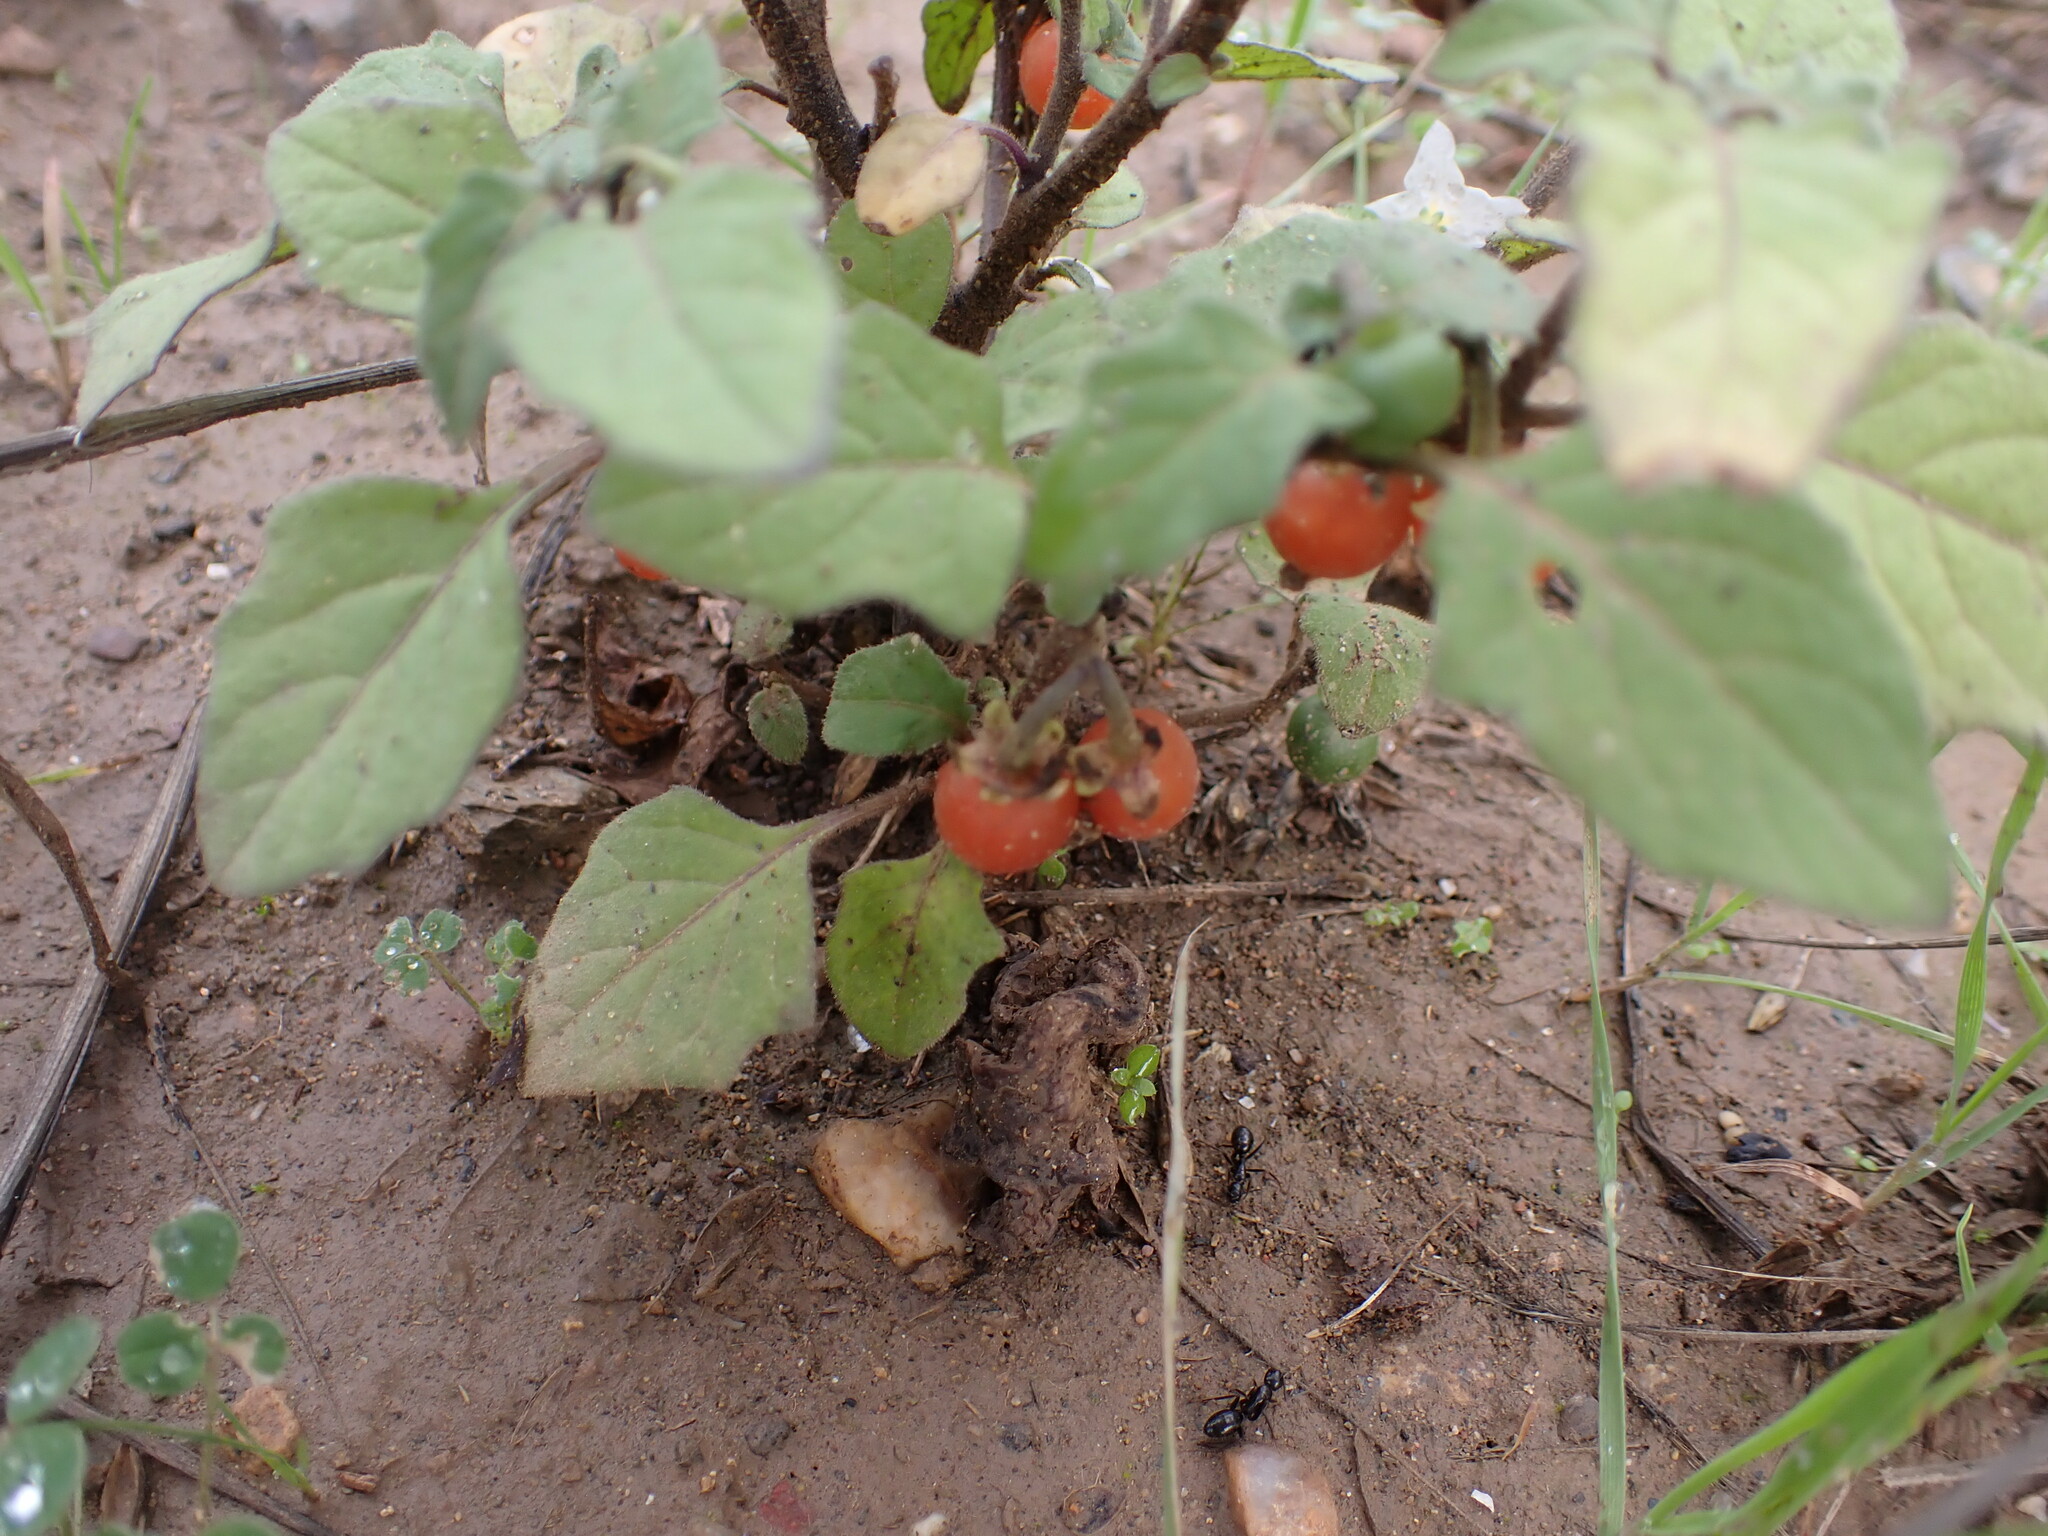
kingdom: Plantae
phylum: Tracheophyta
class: Magnoliopsida
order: Solanales
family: Solanaceae
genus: Solanum
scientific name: Solanum villosum
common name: Red nightshade
